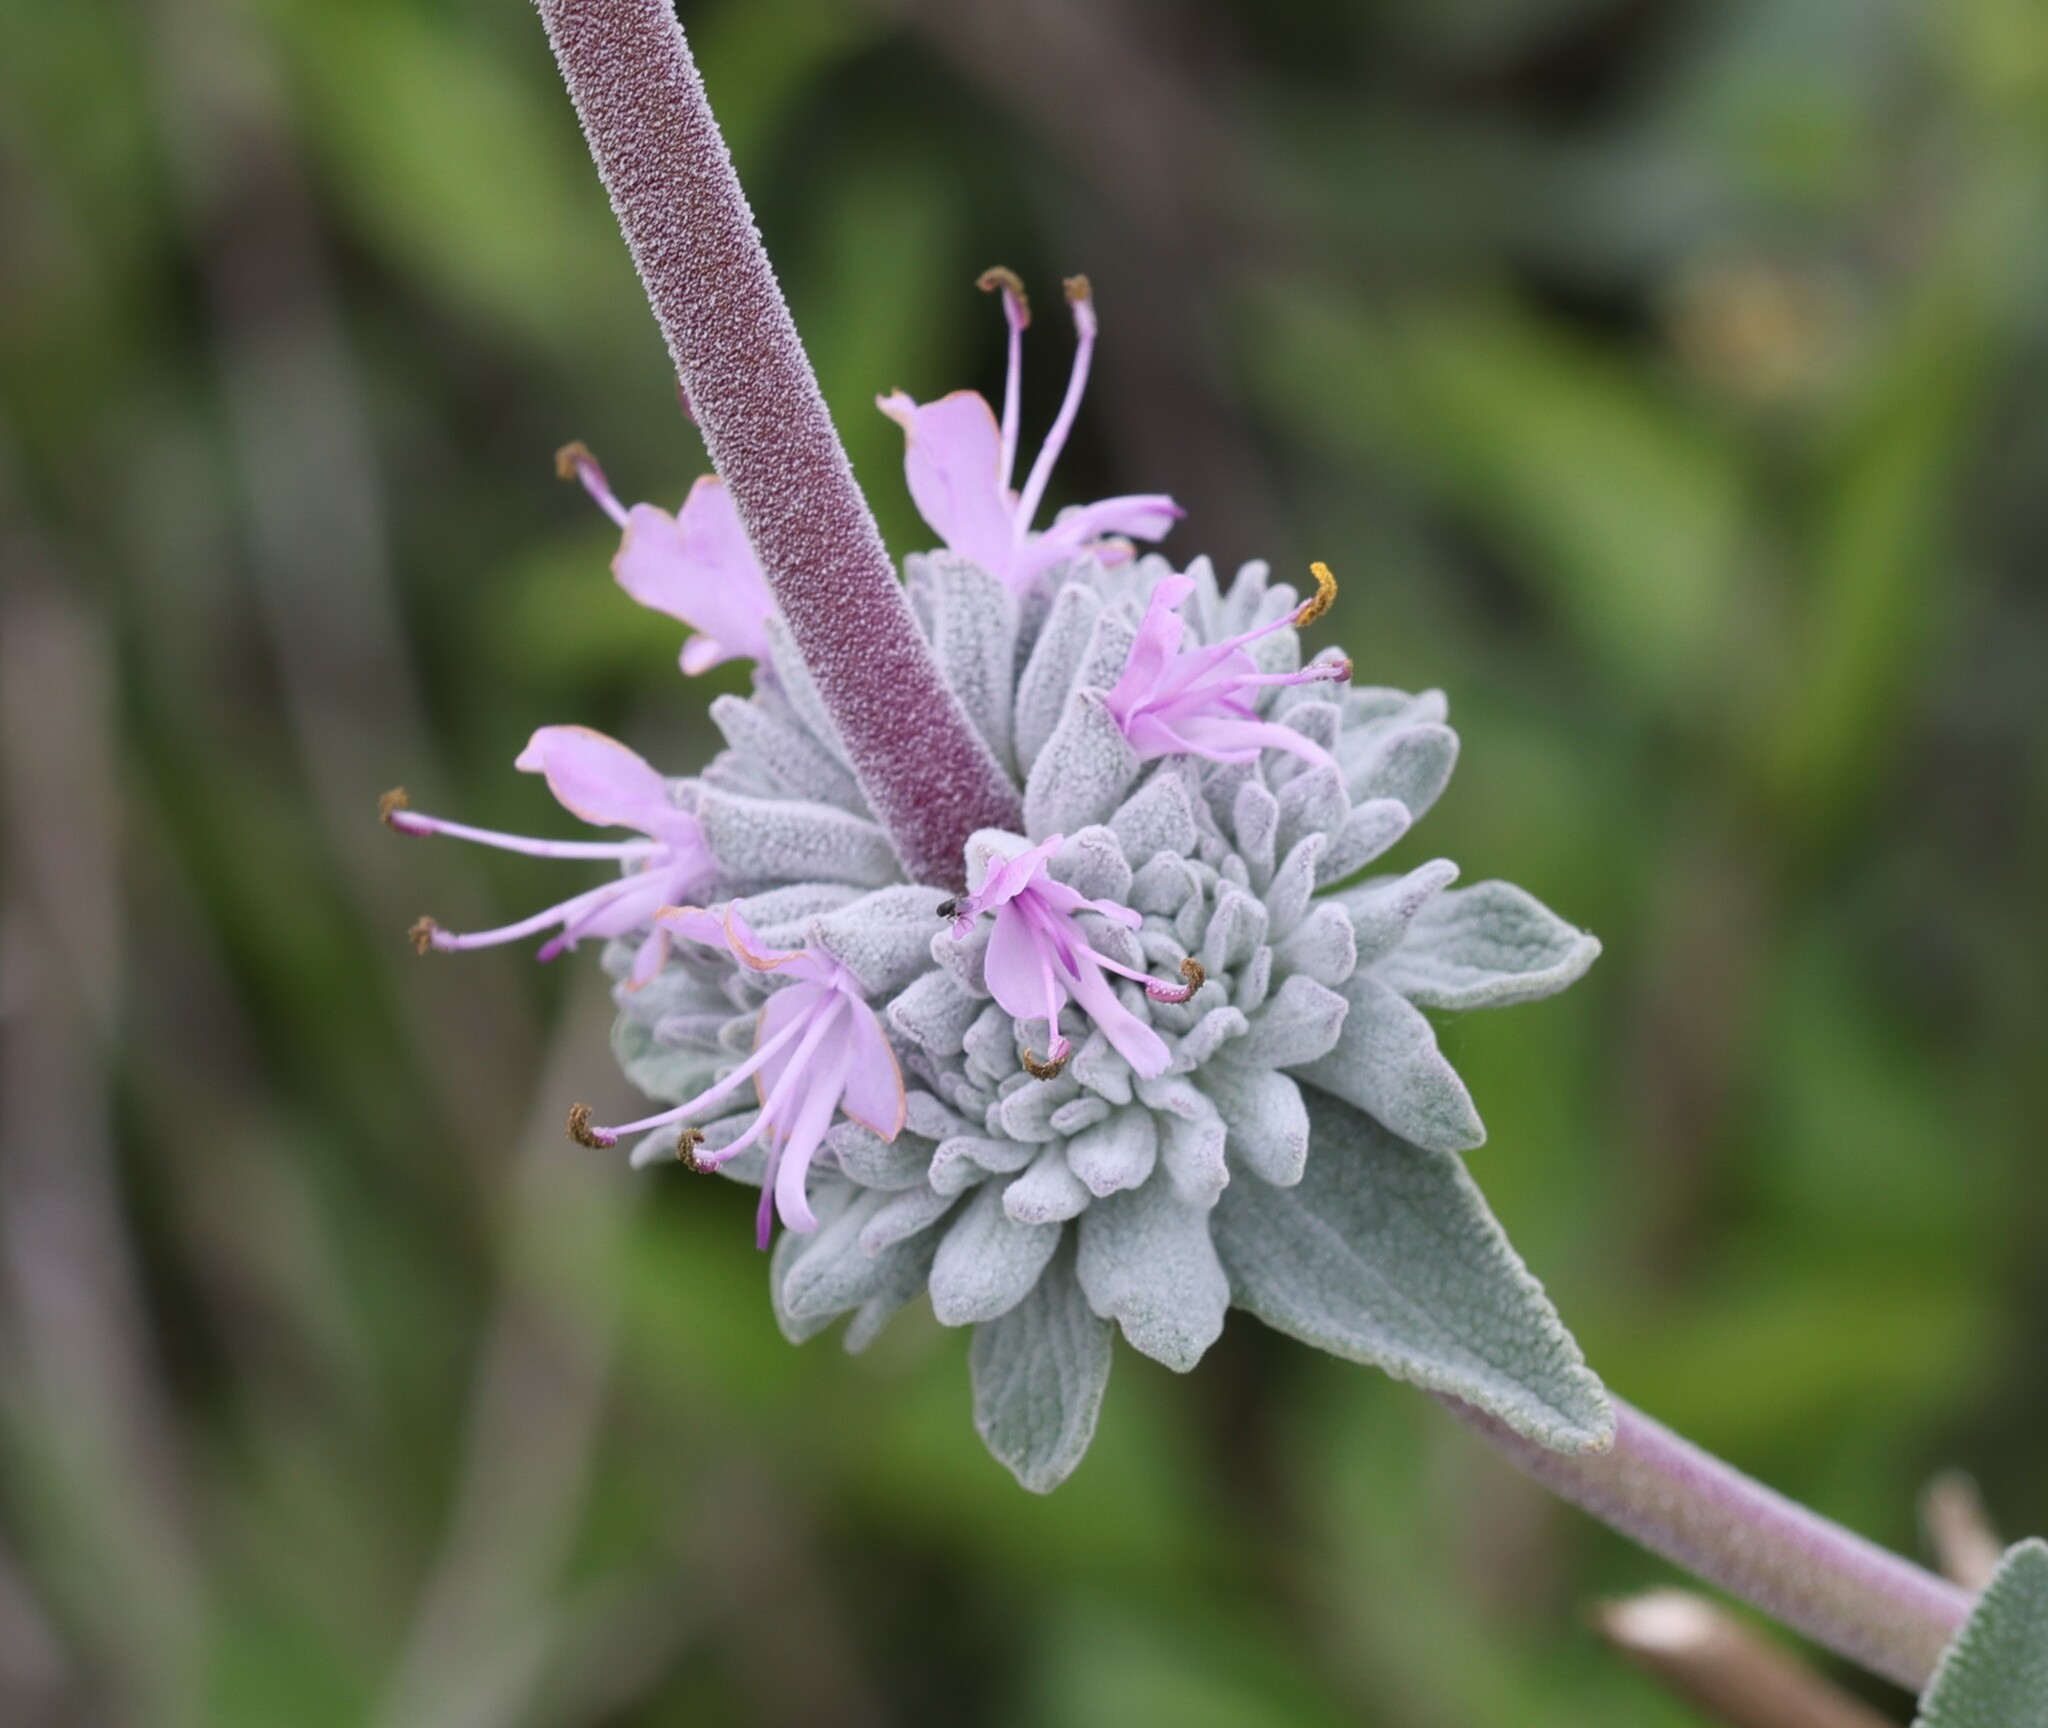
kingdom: Plantae
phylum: Tracheophyta
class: Magnoliopsida
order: Lamiales
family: Lamiaceae
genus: Salvia
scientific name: Salvia leucophylla
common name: Purple sage
